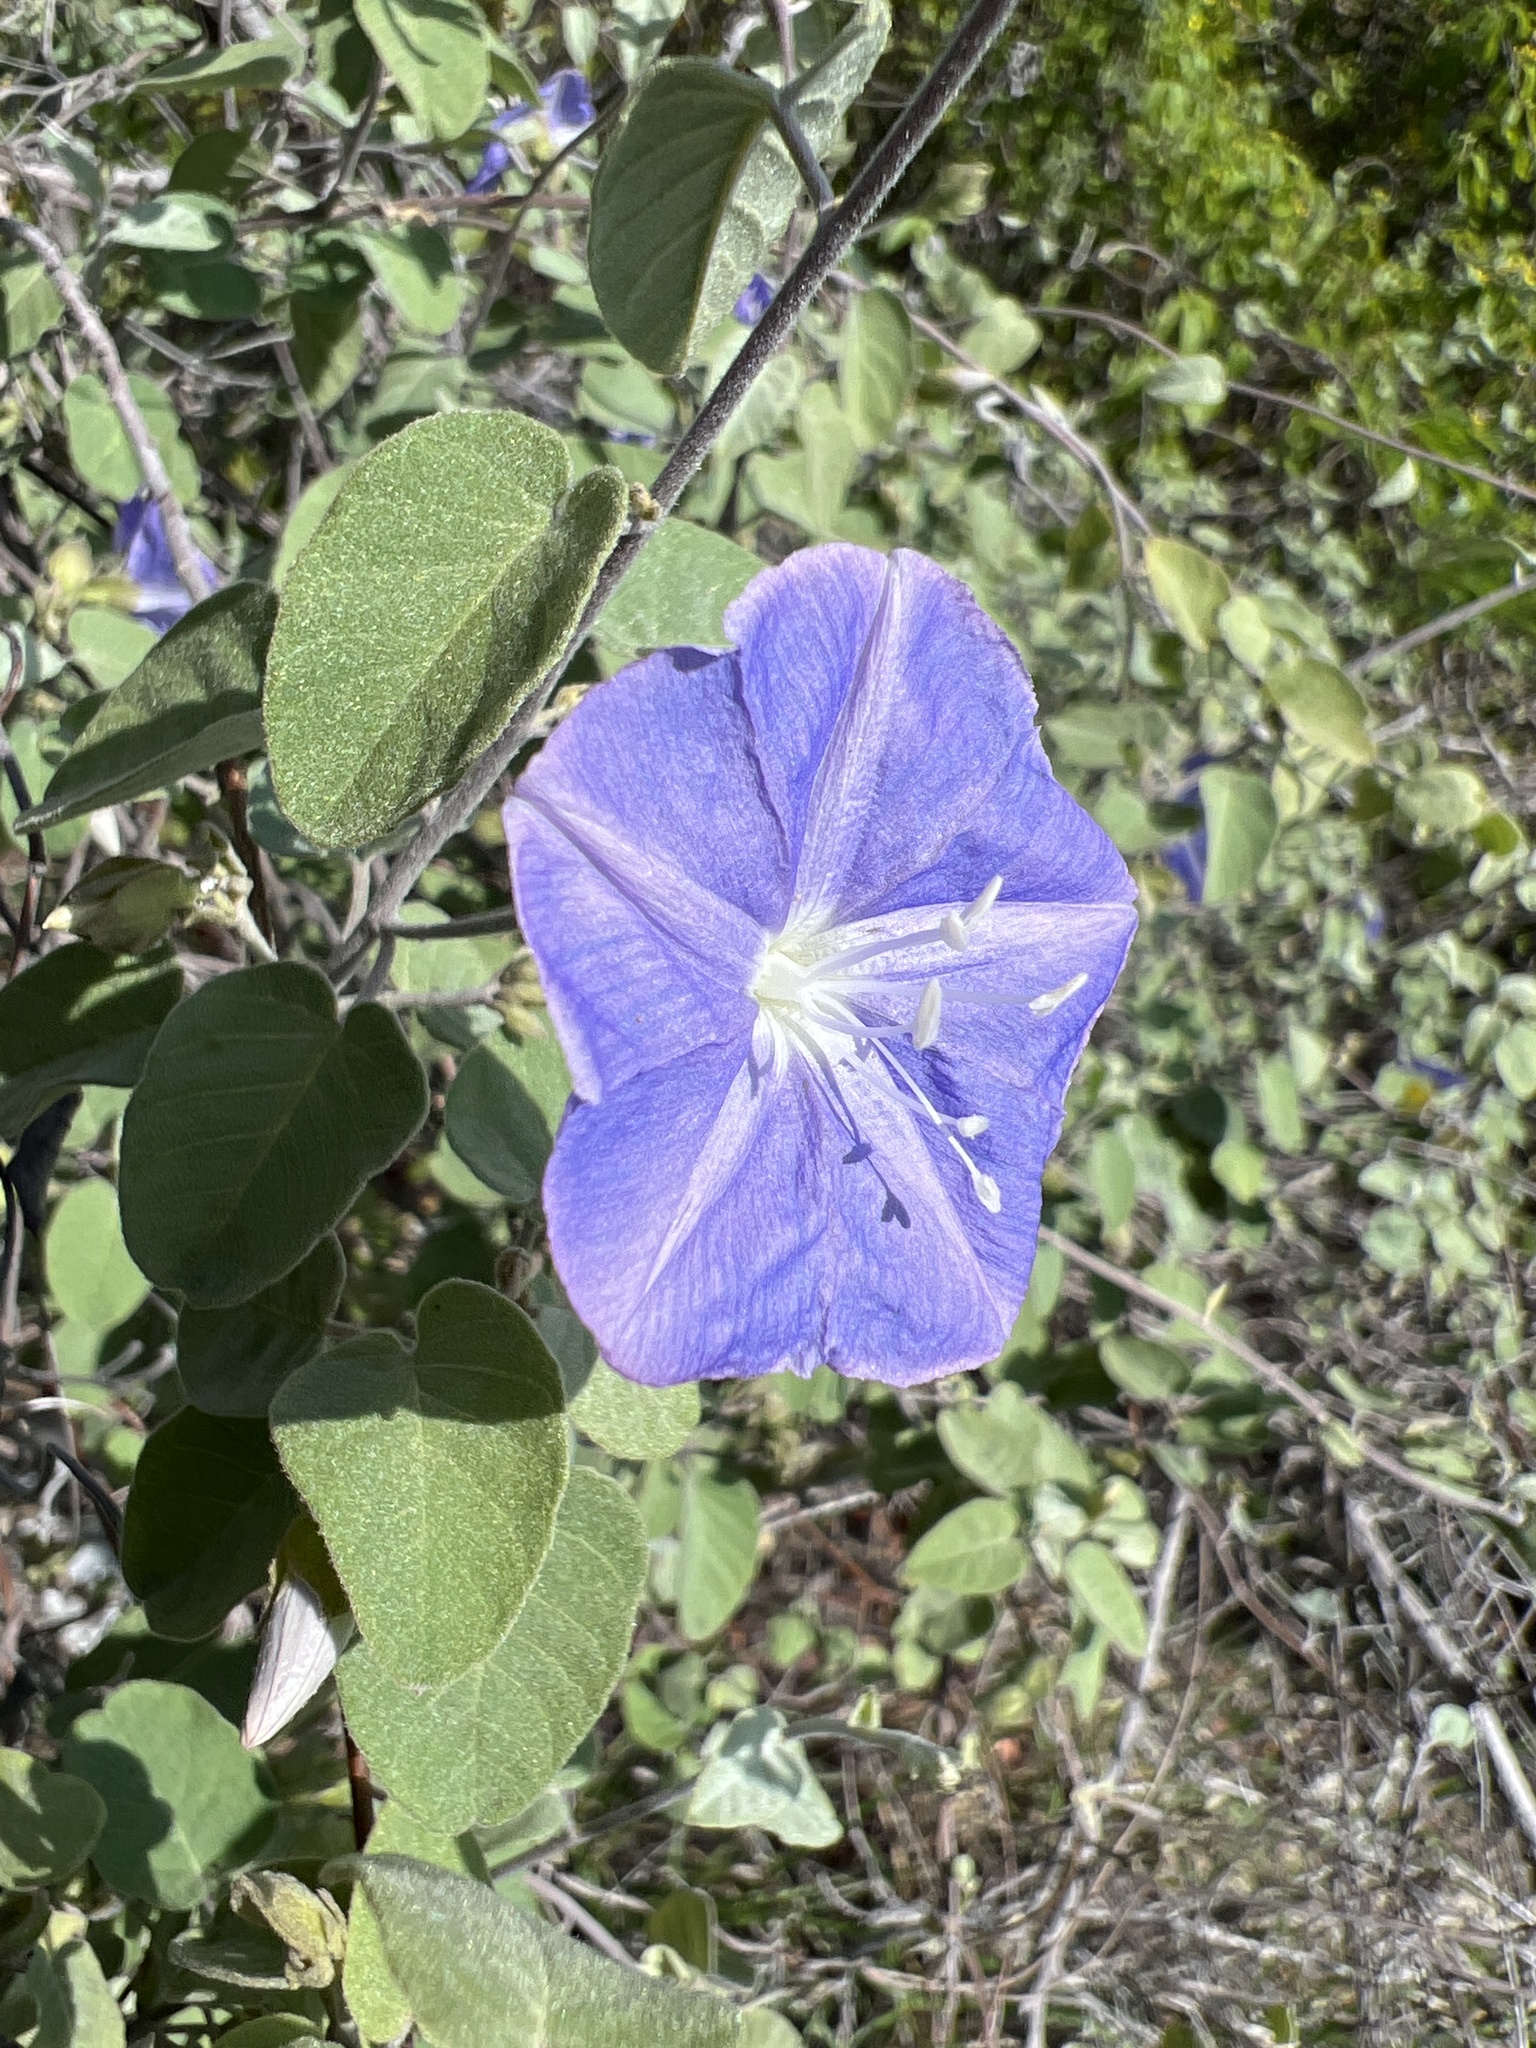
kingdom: Plantae
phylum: Tracheophyta
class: Magnoliopsida
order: Solanales
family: Convolvulaceae
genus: Jacquemontia
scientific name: Jacquemontia cumanensis
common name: Thicket clustervine
